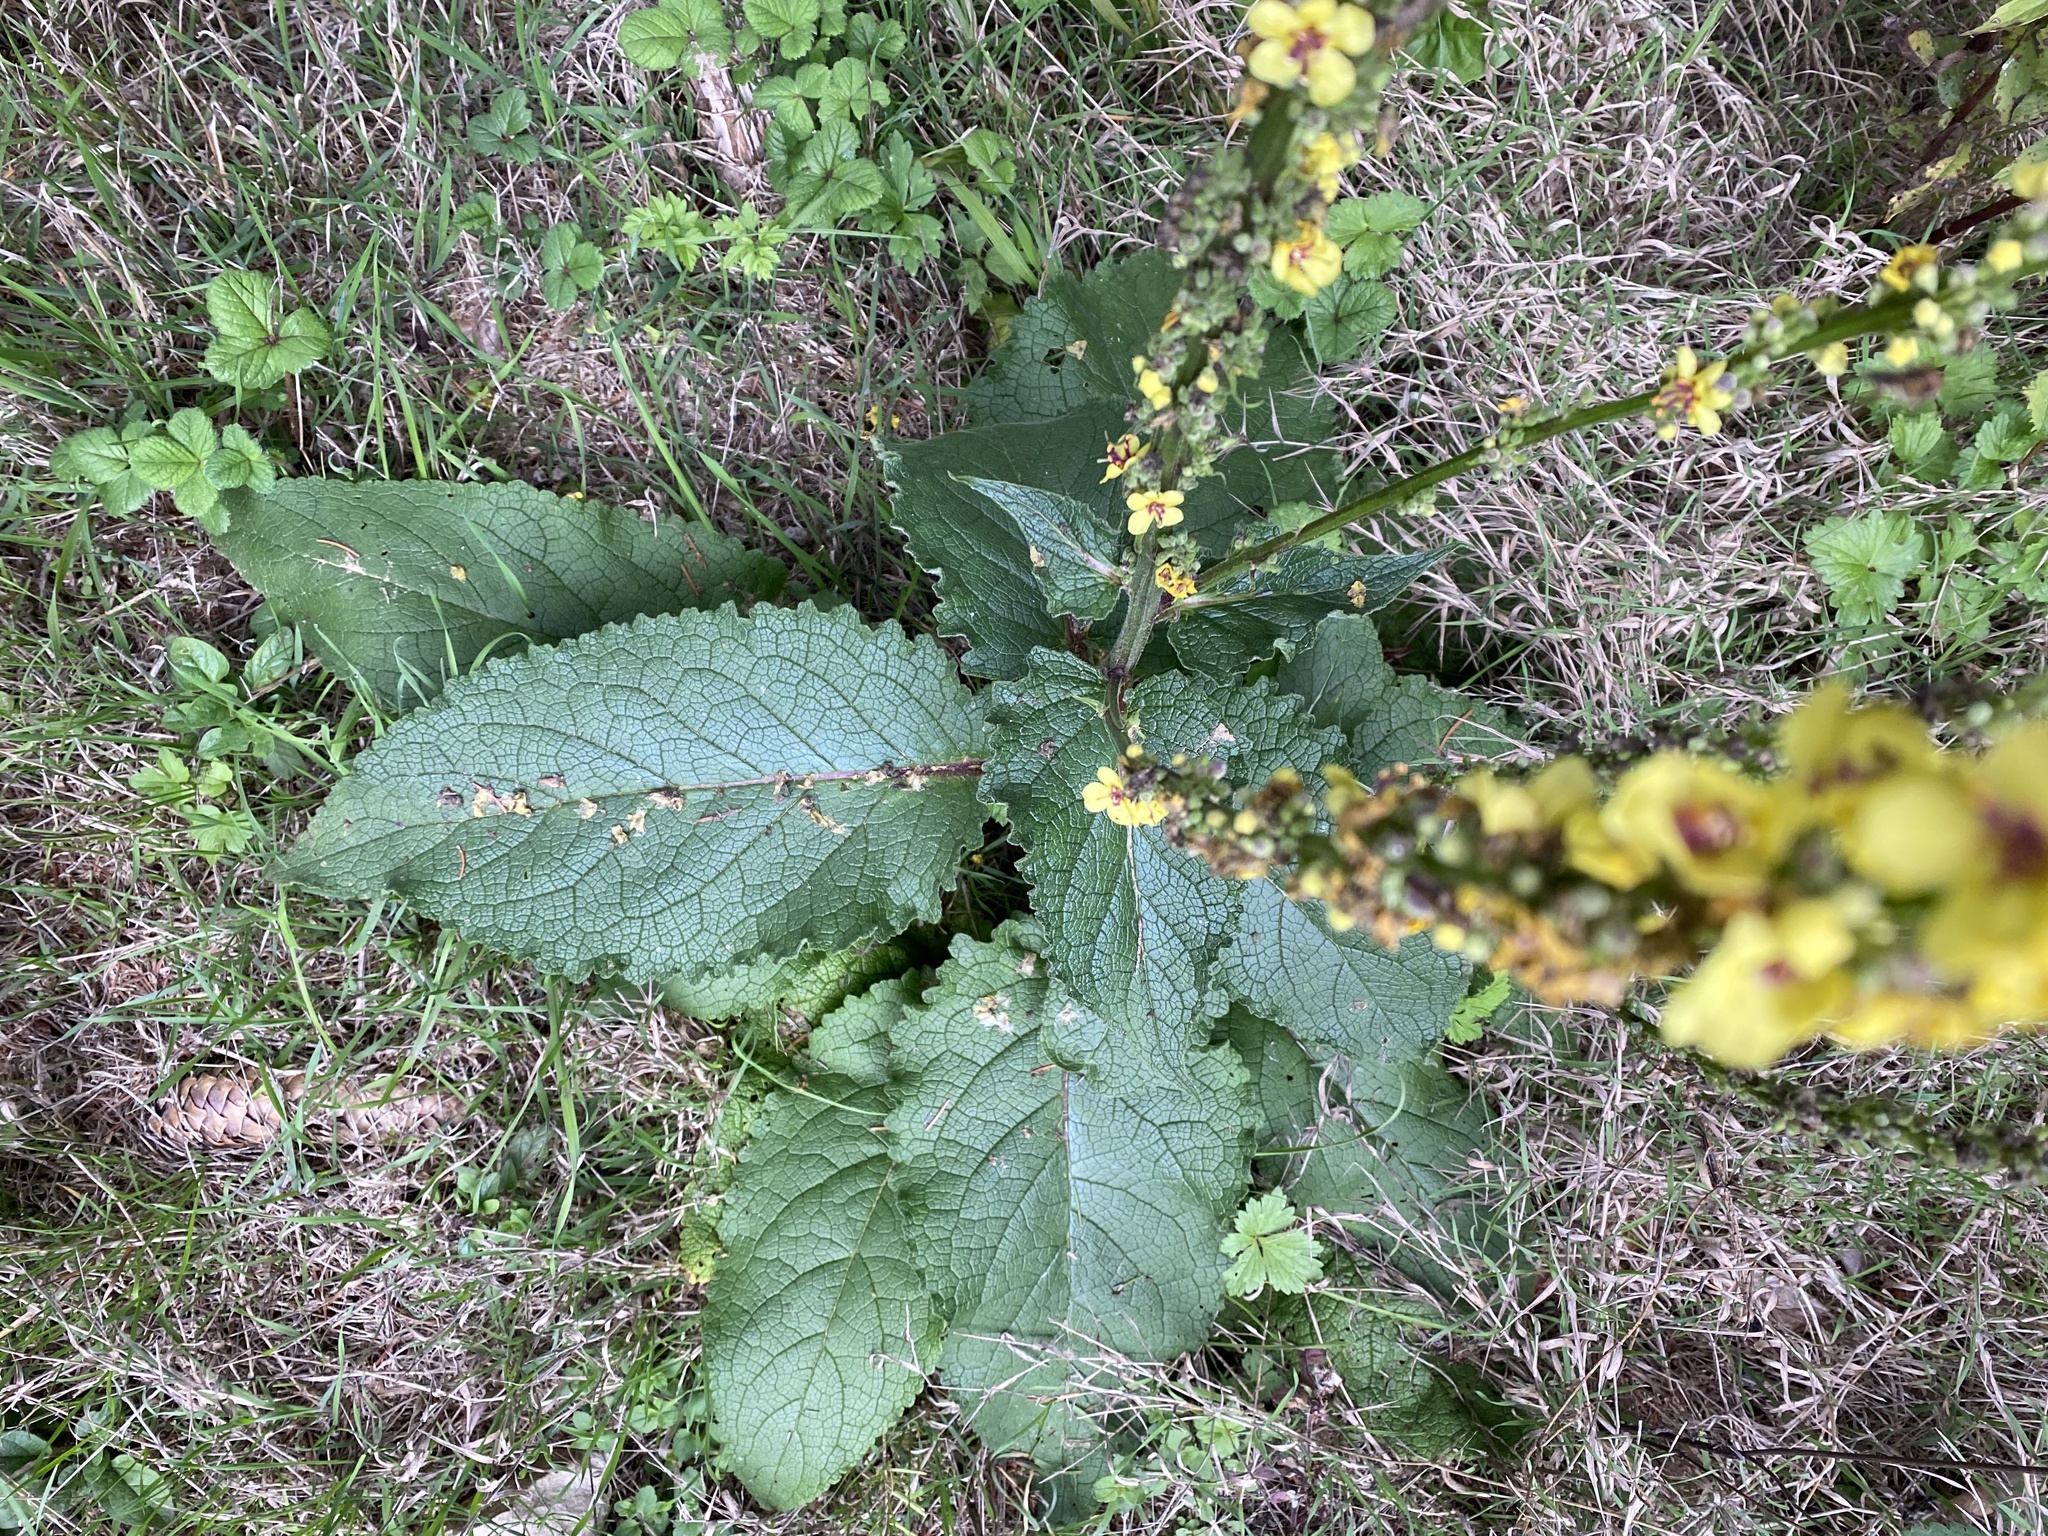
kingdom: Plantae
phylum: Tracheophyta
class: Magnoliopsida
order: Lamiales
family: Scrophulariaceae
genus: Verbascum
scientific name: Verbascum nigrum
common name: Dark mullein
